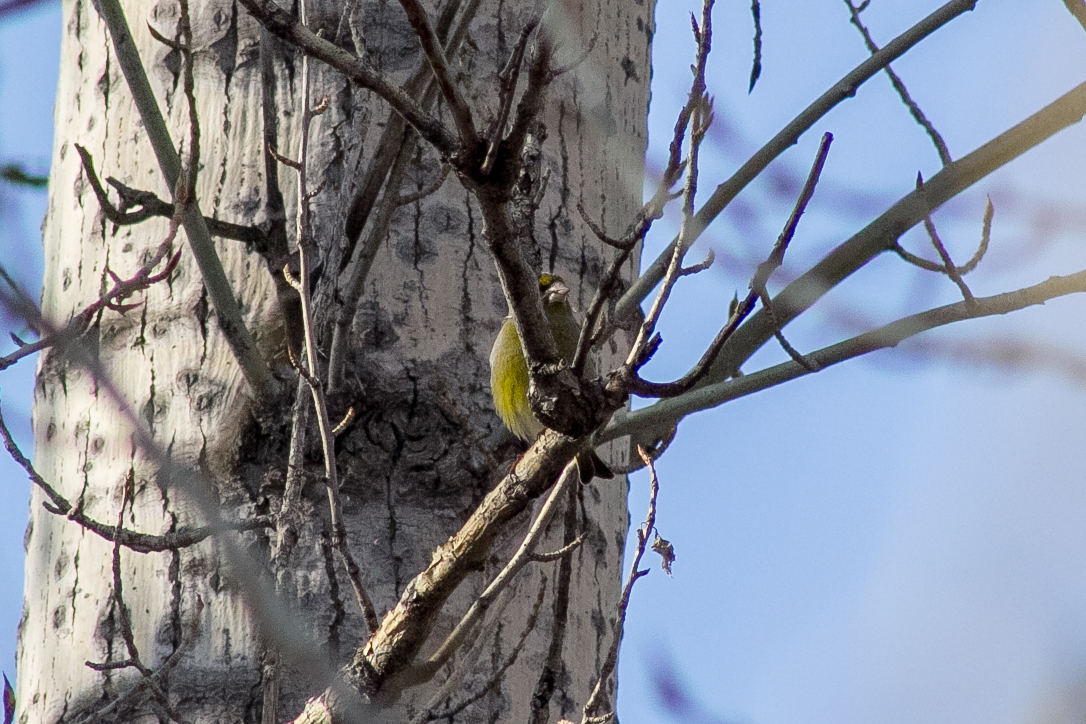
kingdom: Plantae
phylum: Tracheophyta
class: Liliopsida
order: Poales
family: Poaceae
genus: Chloris
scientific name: Chloris chloris
